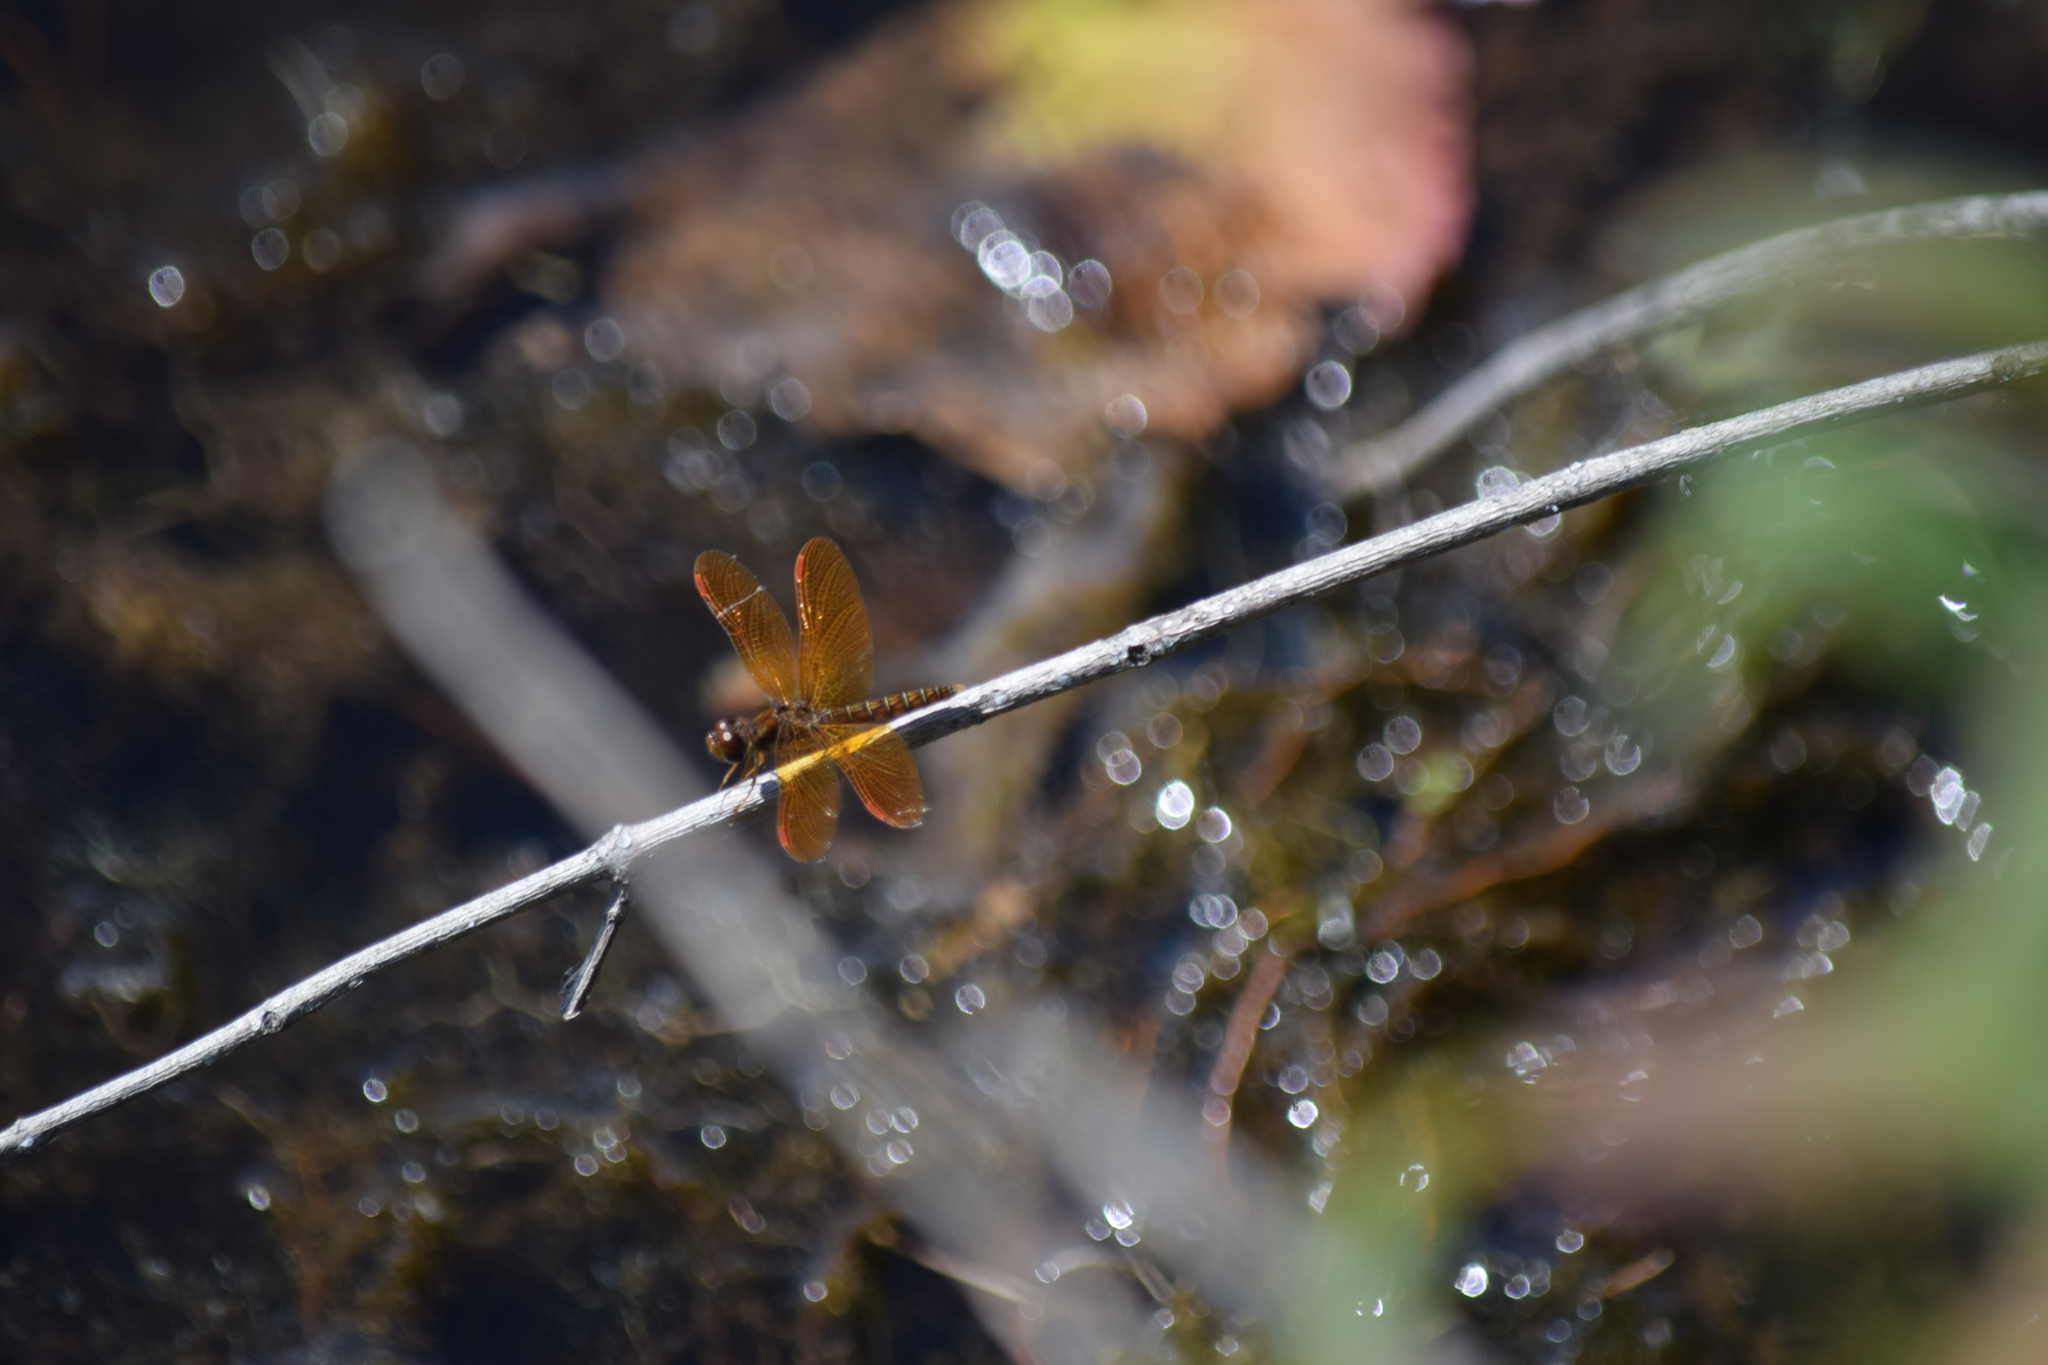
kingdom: Animalia
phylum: Arthropoda
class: Insecta
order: Odonata
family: Libellulidae
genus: Perithemis
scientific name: Perithemis tenera
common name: Eastern amberwing
